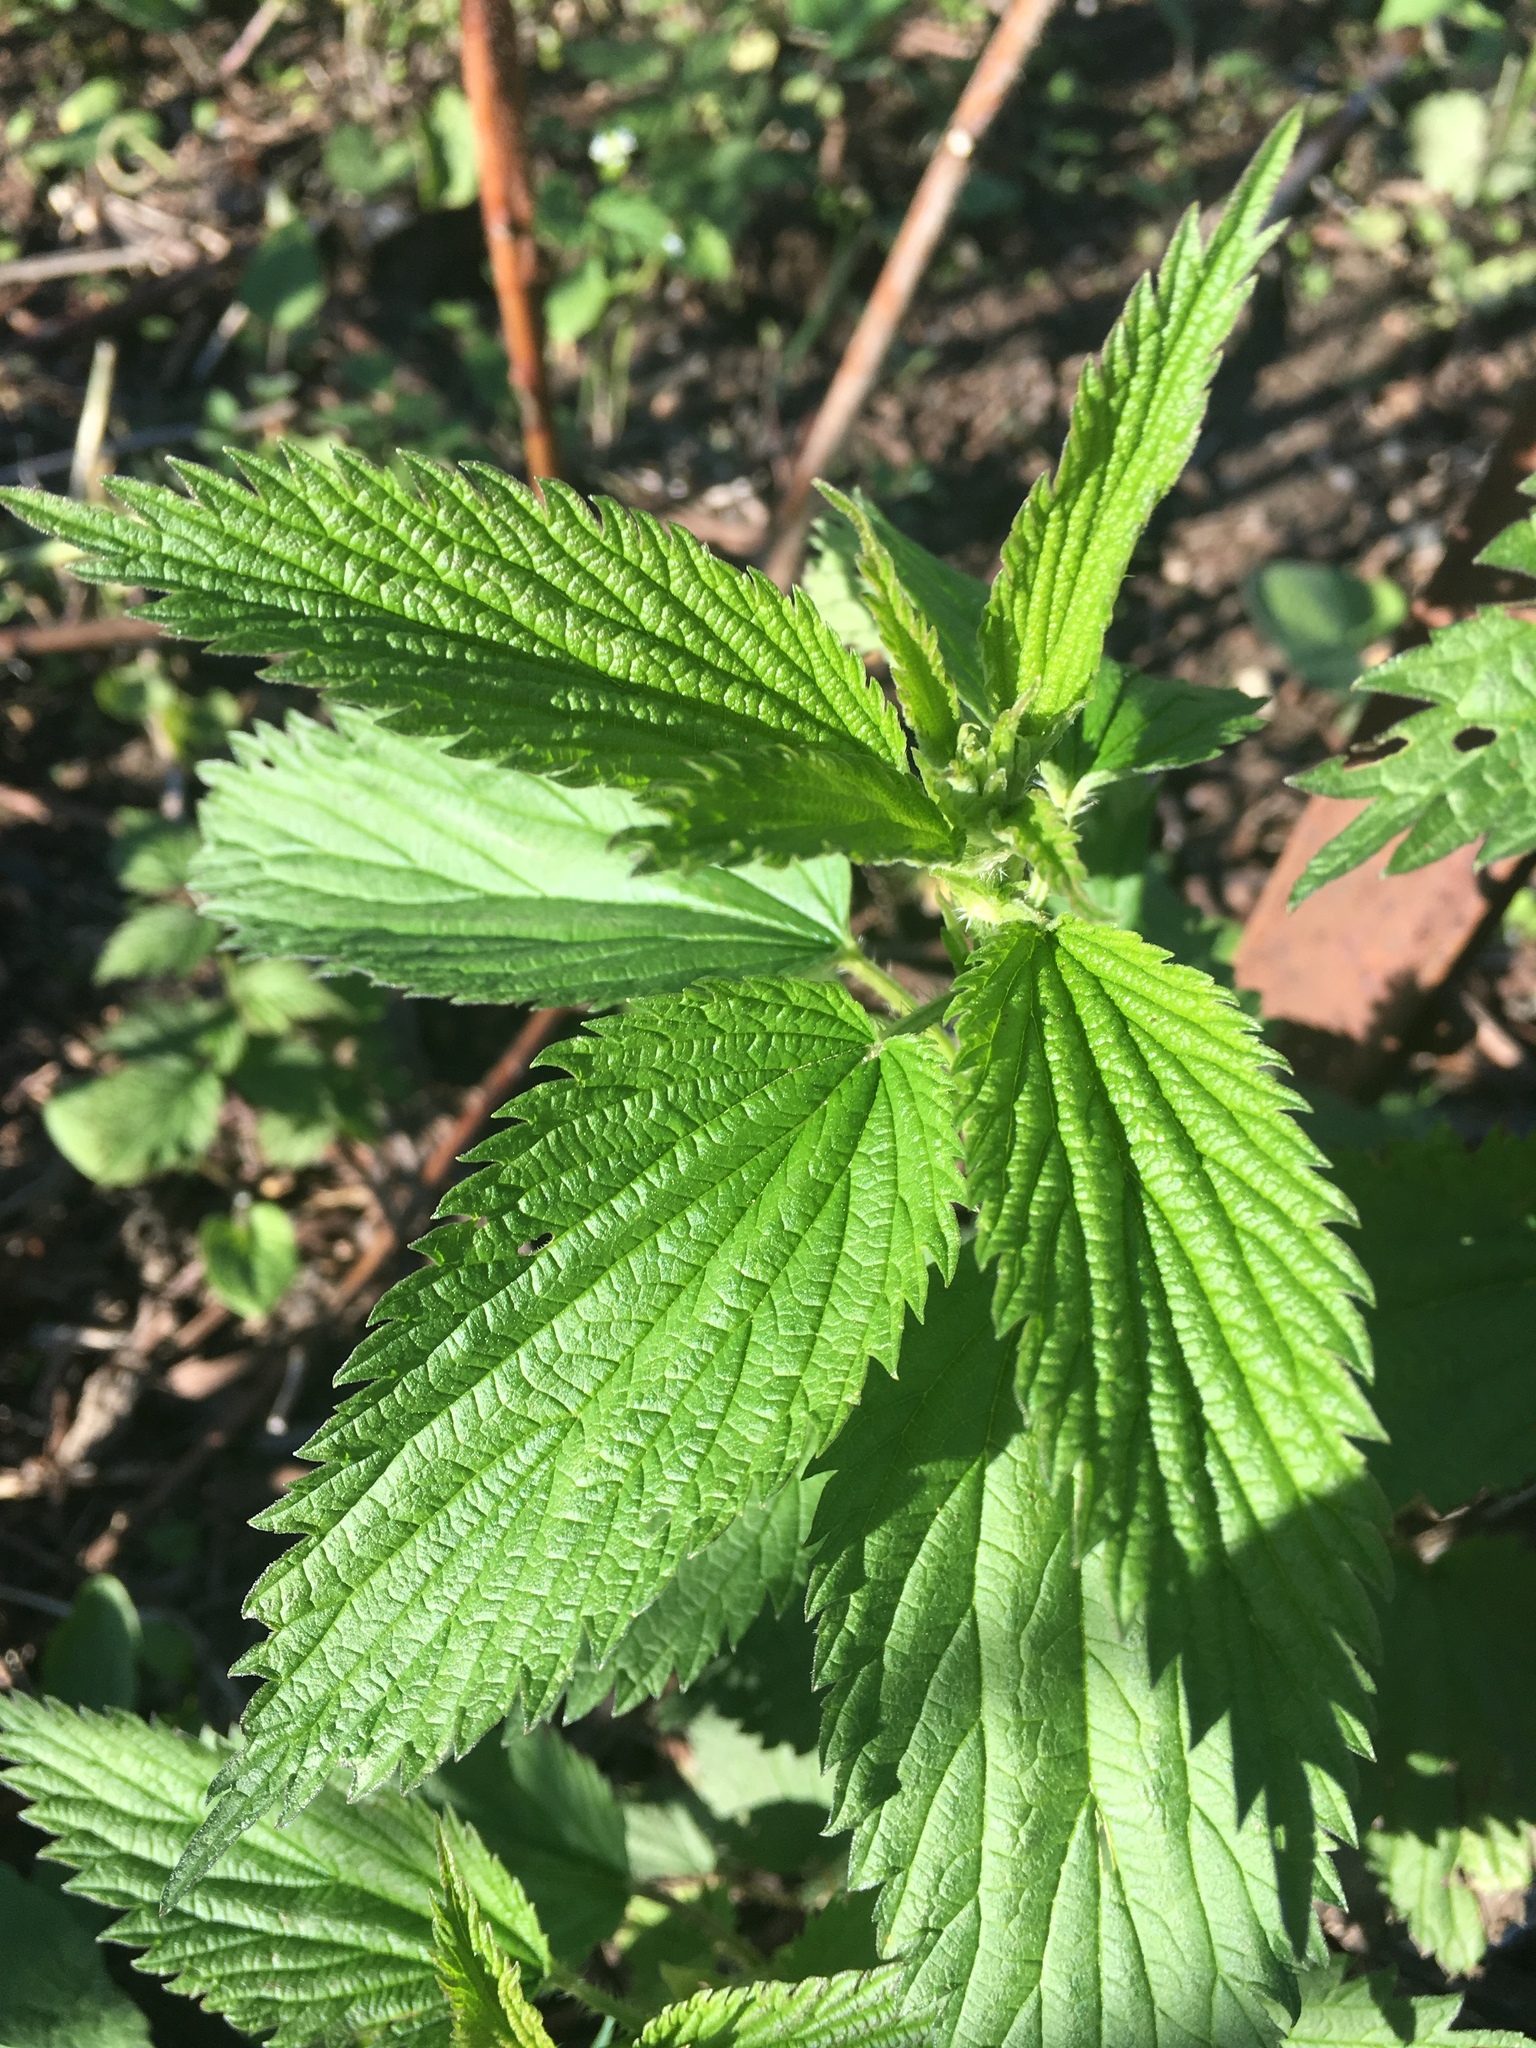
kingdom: Plantae
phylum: Tracheophyta
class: Magnoliopsida
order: Rosales
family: Urticaceae
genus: Urtica
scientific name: Urtica dioica
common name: Common nettle
